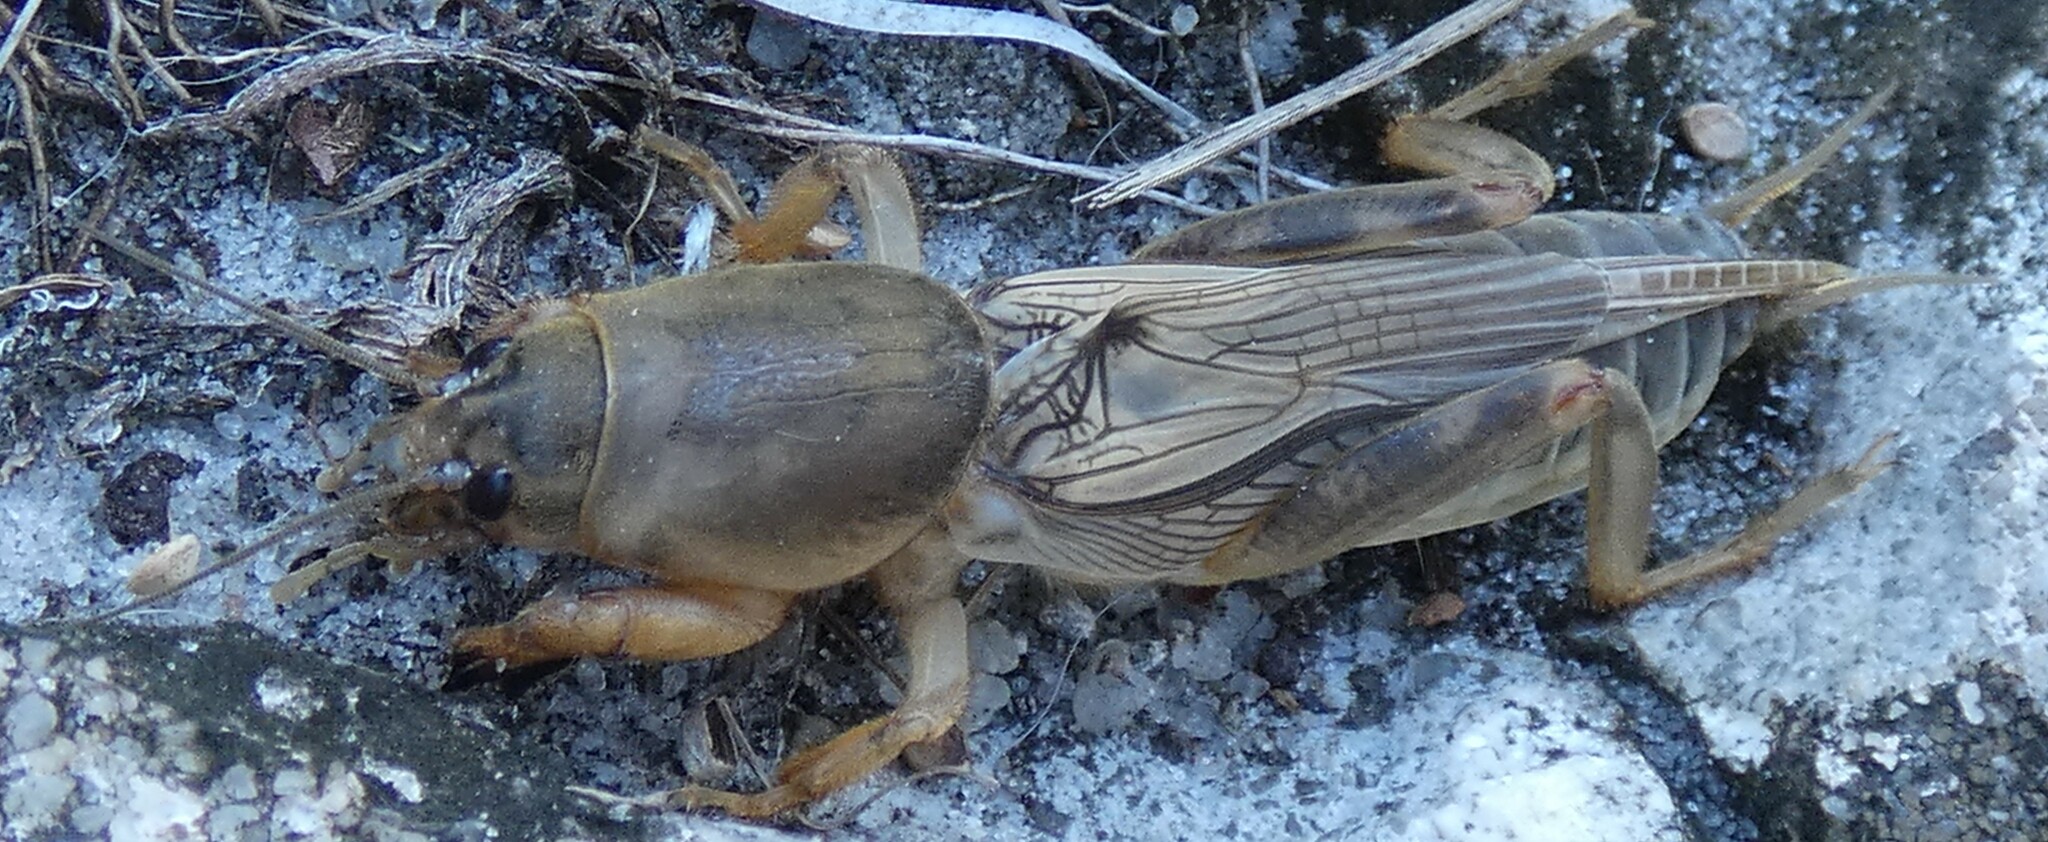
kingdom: Animalia
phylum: Arthropoda
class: Insecta
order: Orthoptera
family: Gryllotalpidae
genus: Neoscapteriscus
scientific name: Neoscapteriscus vicinus
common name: Tawny mole cricket
